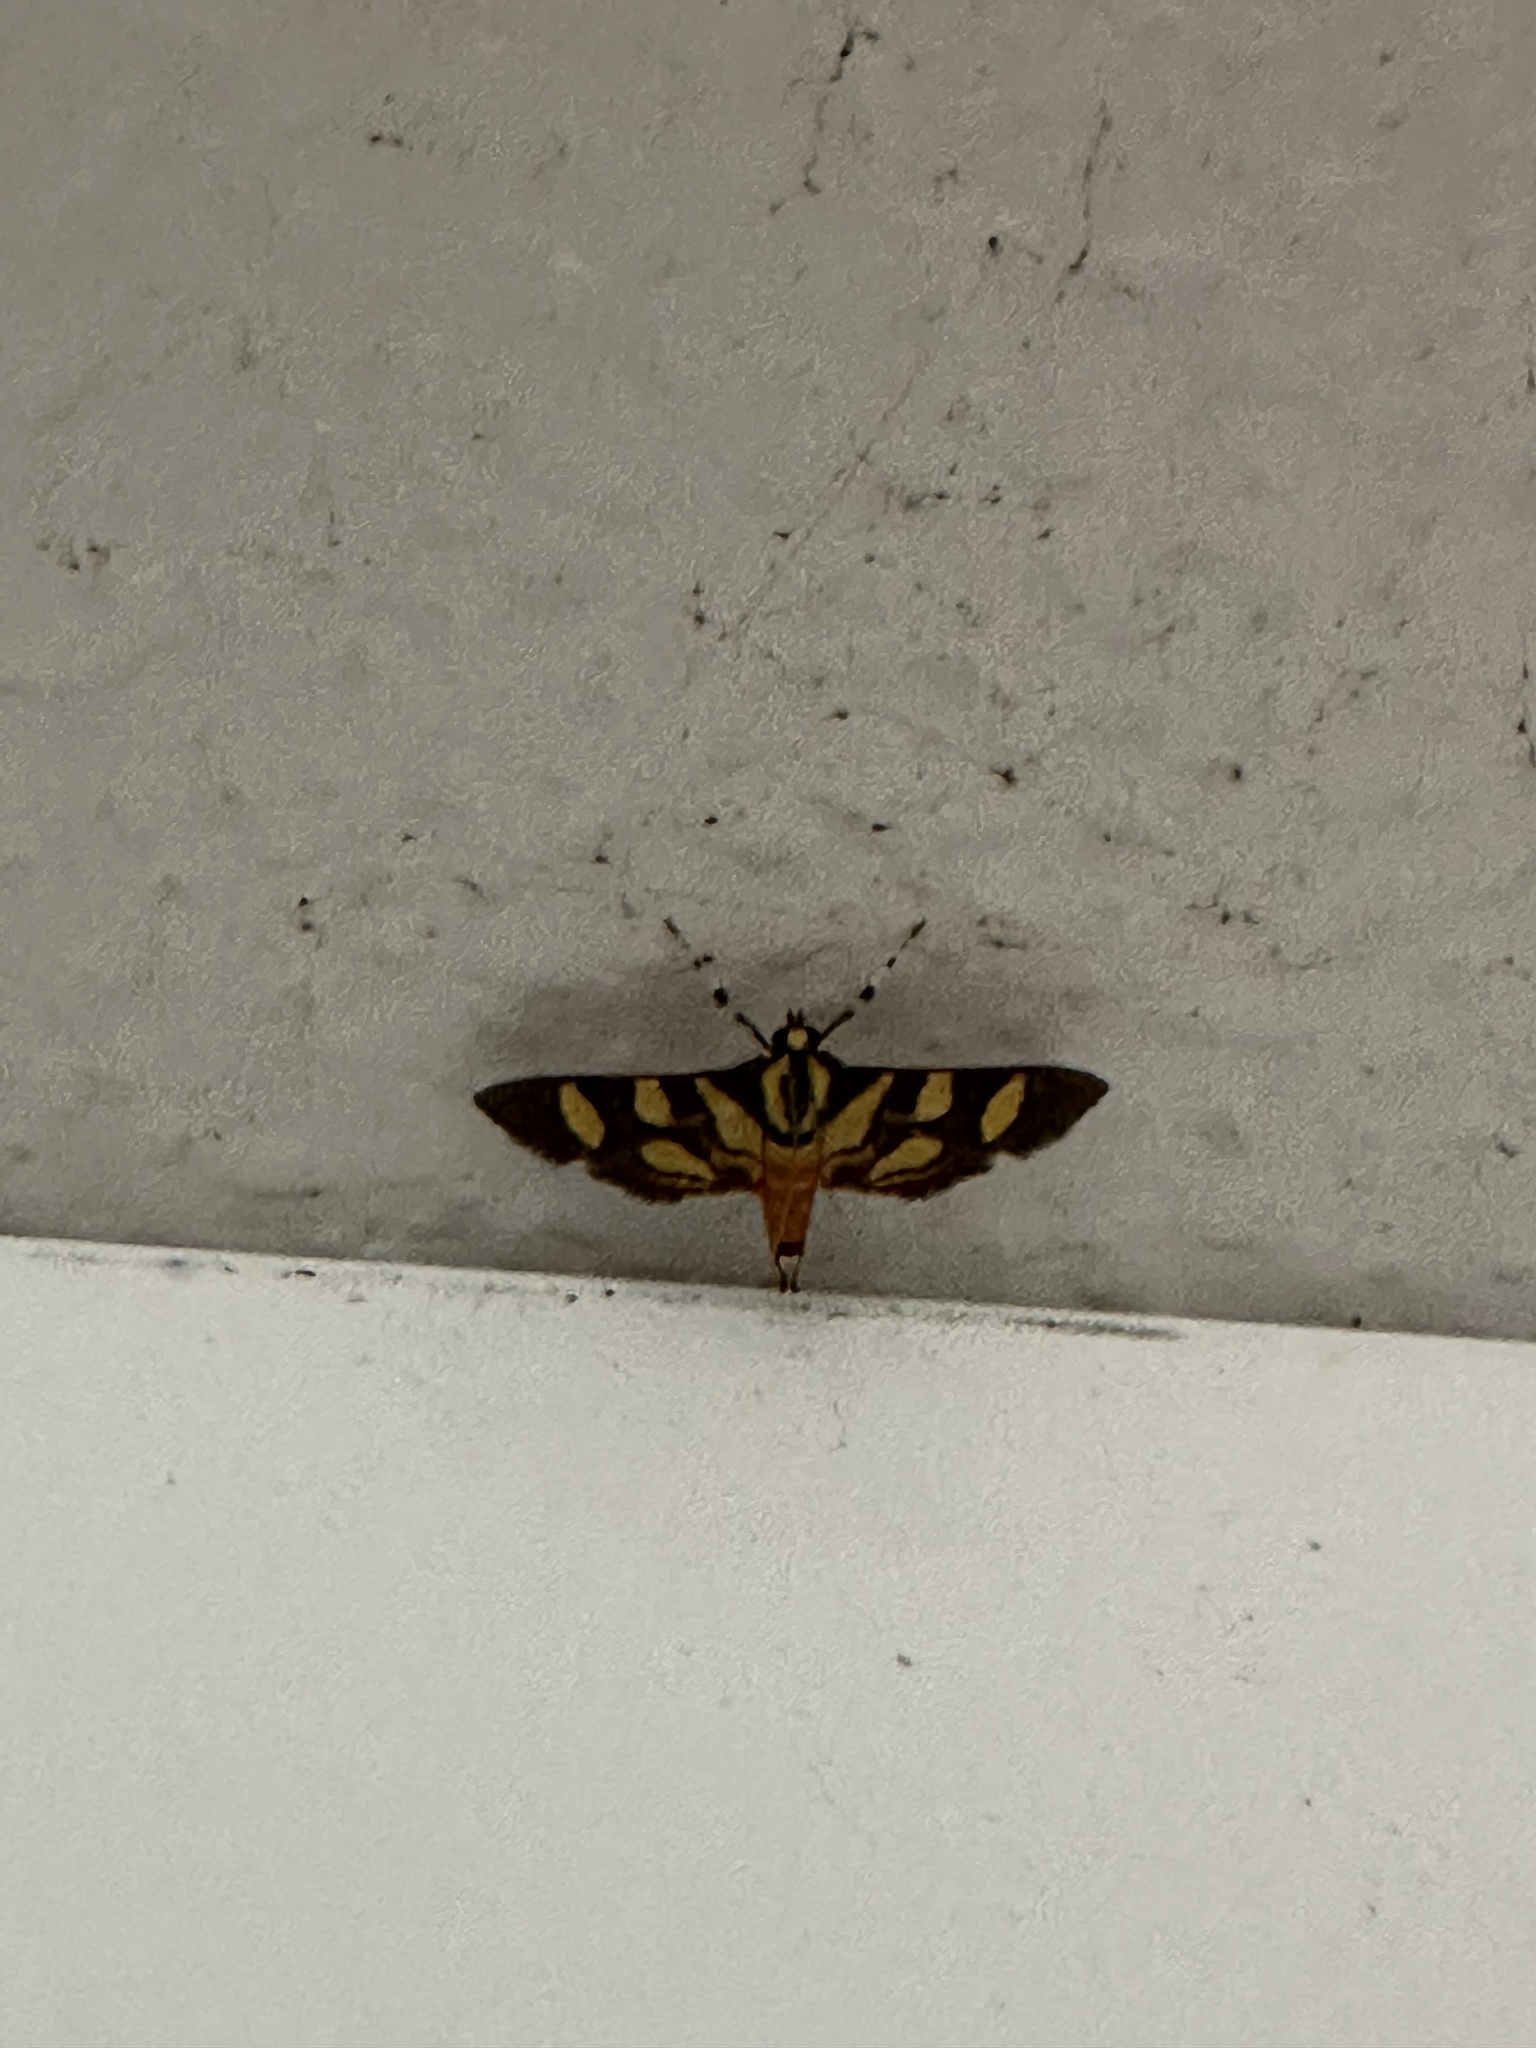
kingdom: Animalia
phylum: Arthropoda
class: Insecta
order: Lepidoptera
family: Crambidae
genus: Syngamia
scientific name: Syngamia florella
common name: Orange-spotted flower moth
